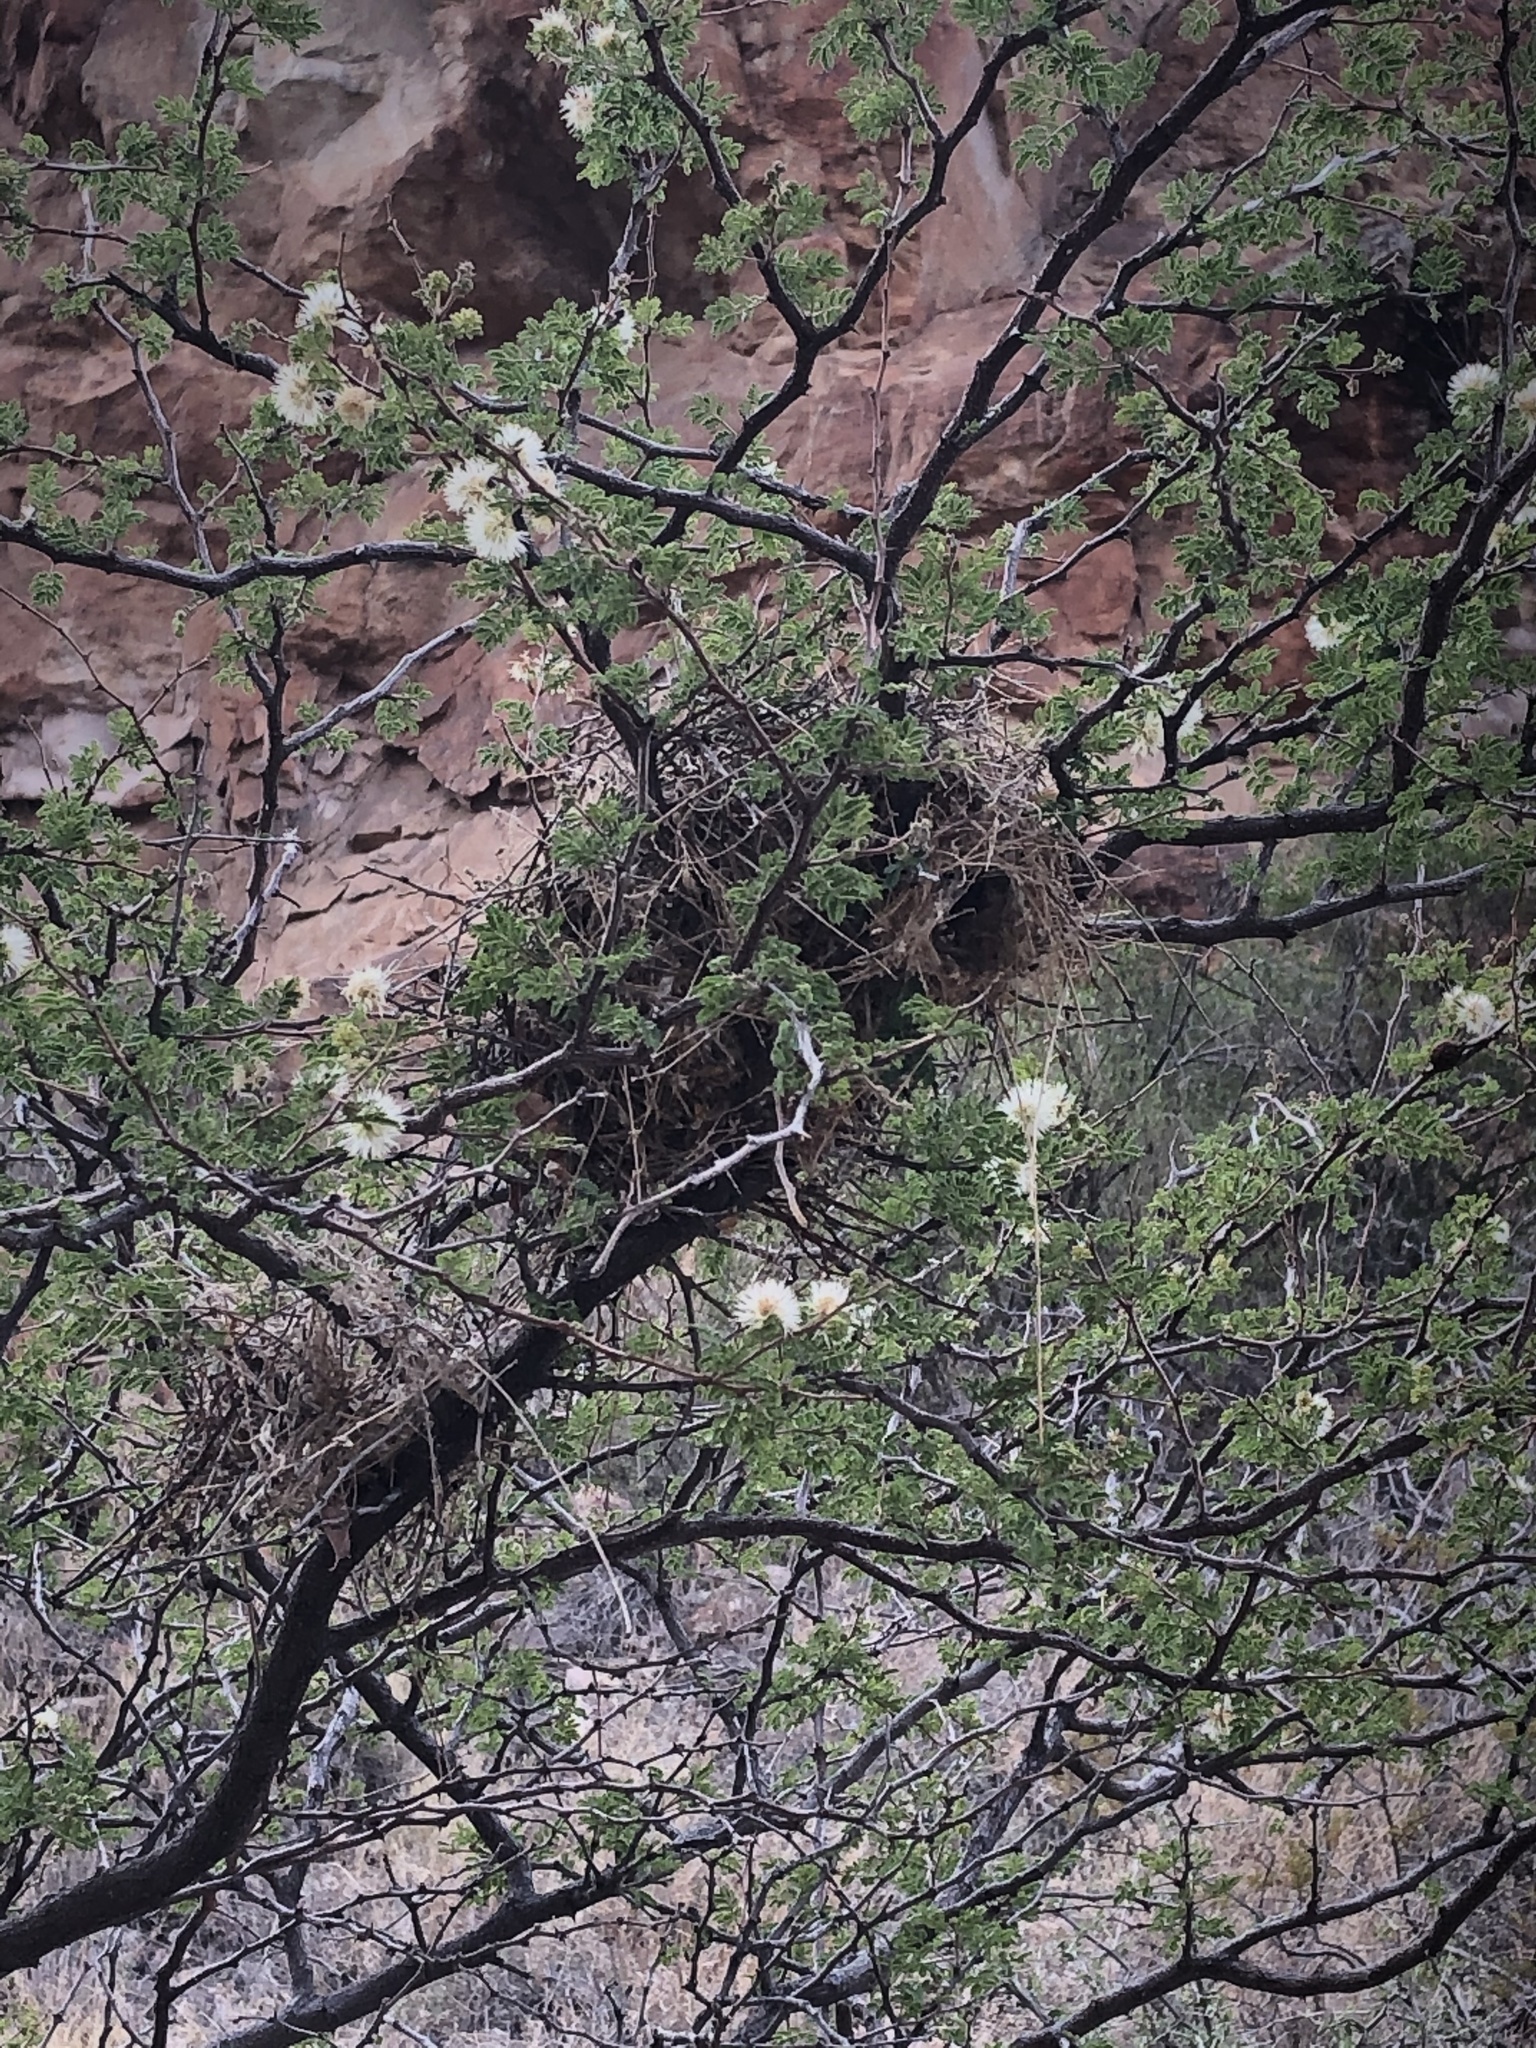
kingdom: Plantae
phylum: Tracheophyta
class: Magnoliopsida
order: Fabales
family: Fabaceae
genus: Mimosa
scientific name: Mimosa aculeaticarpa
